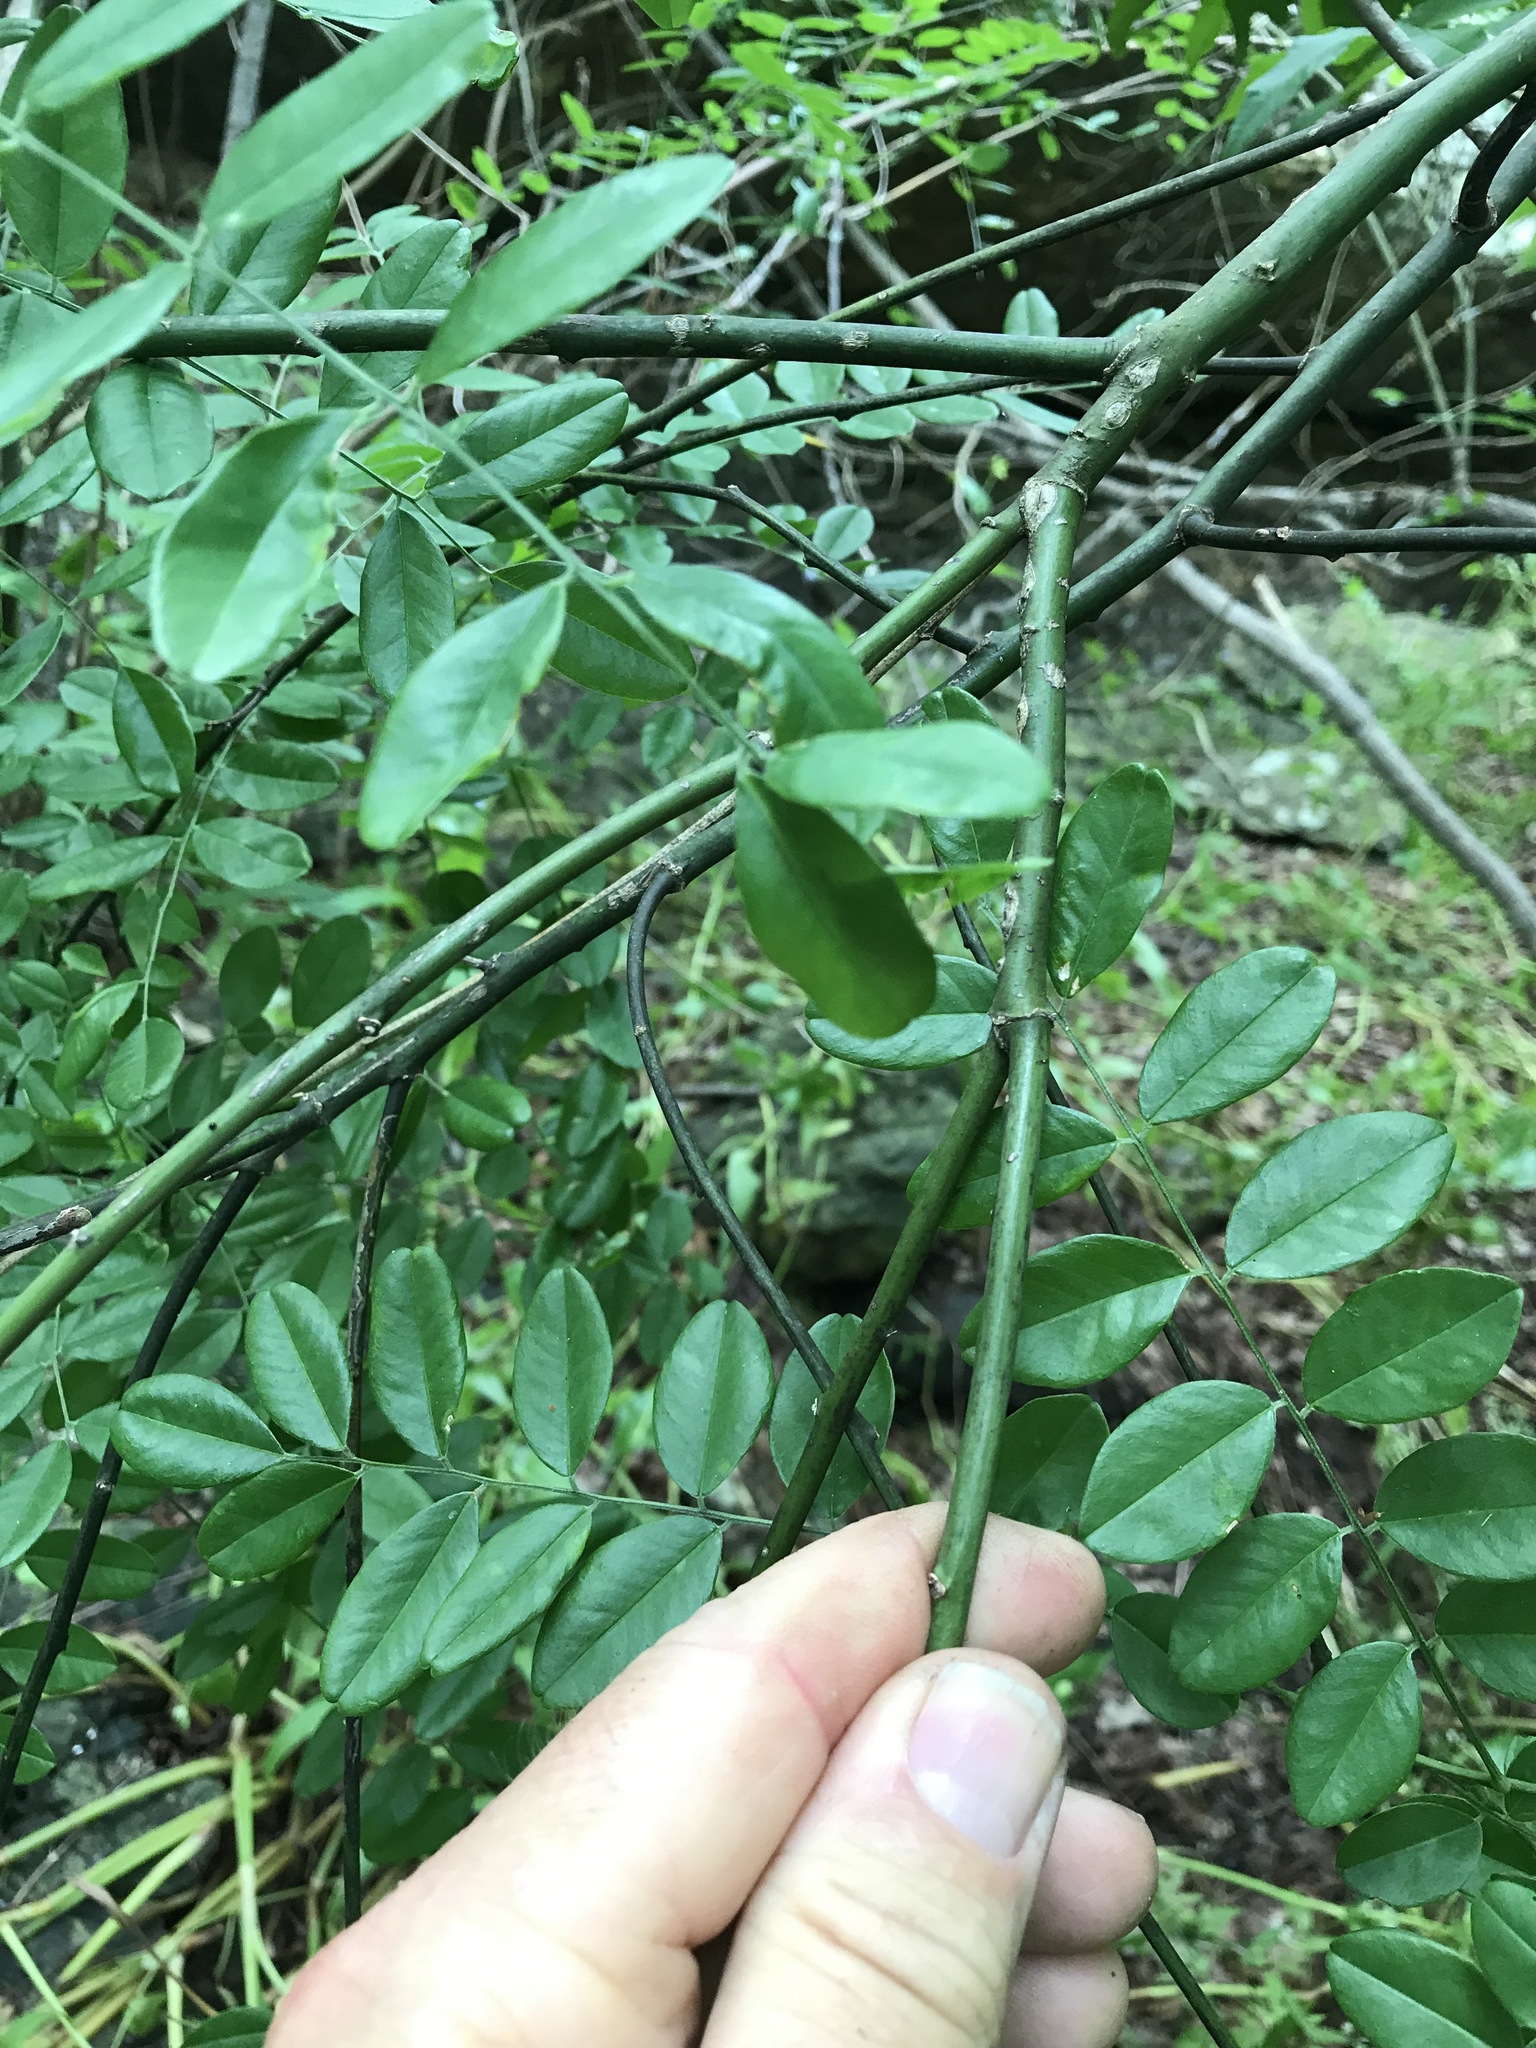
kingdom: Plantae
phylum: Tracheophyta
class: Magnoliopsida
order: Fabales
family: Fabaceae
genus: Styphnolobium
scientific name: Styphnolobium affine
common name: Texas sophora
